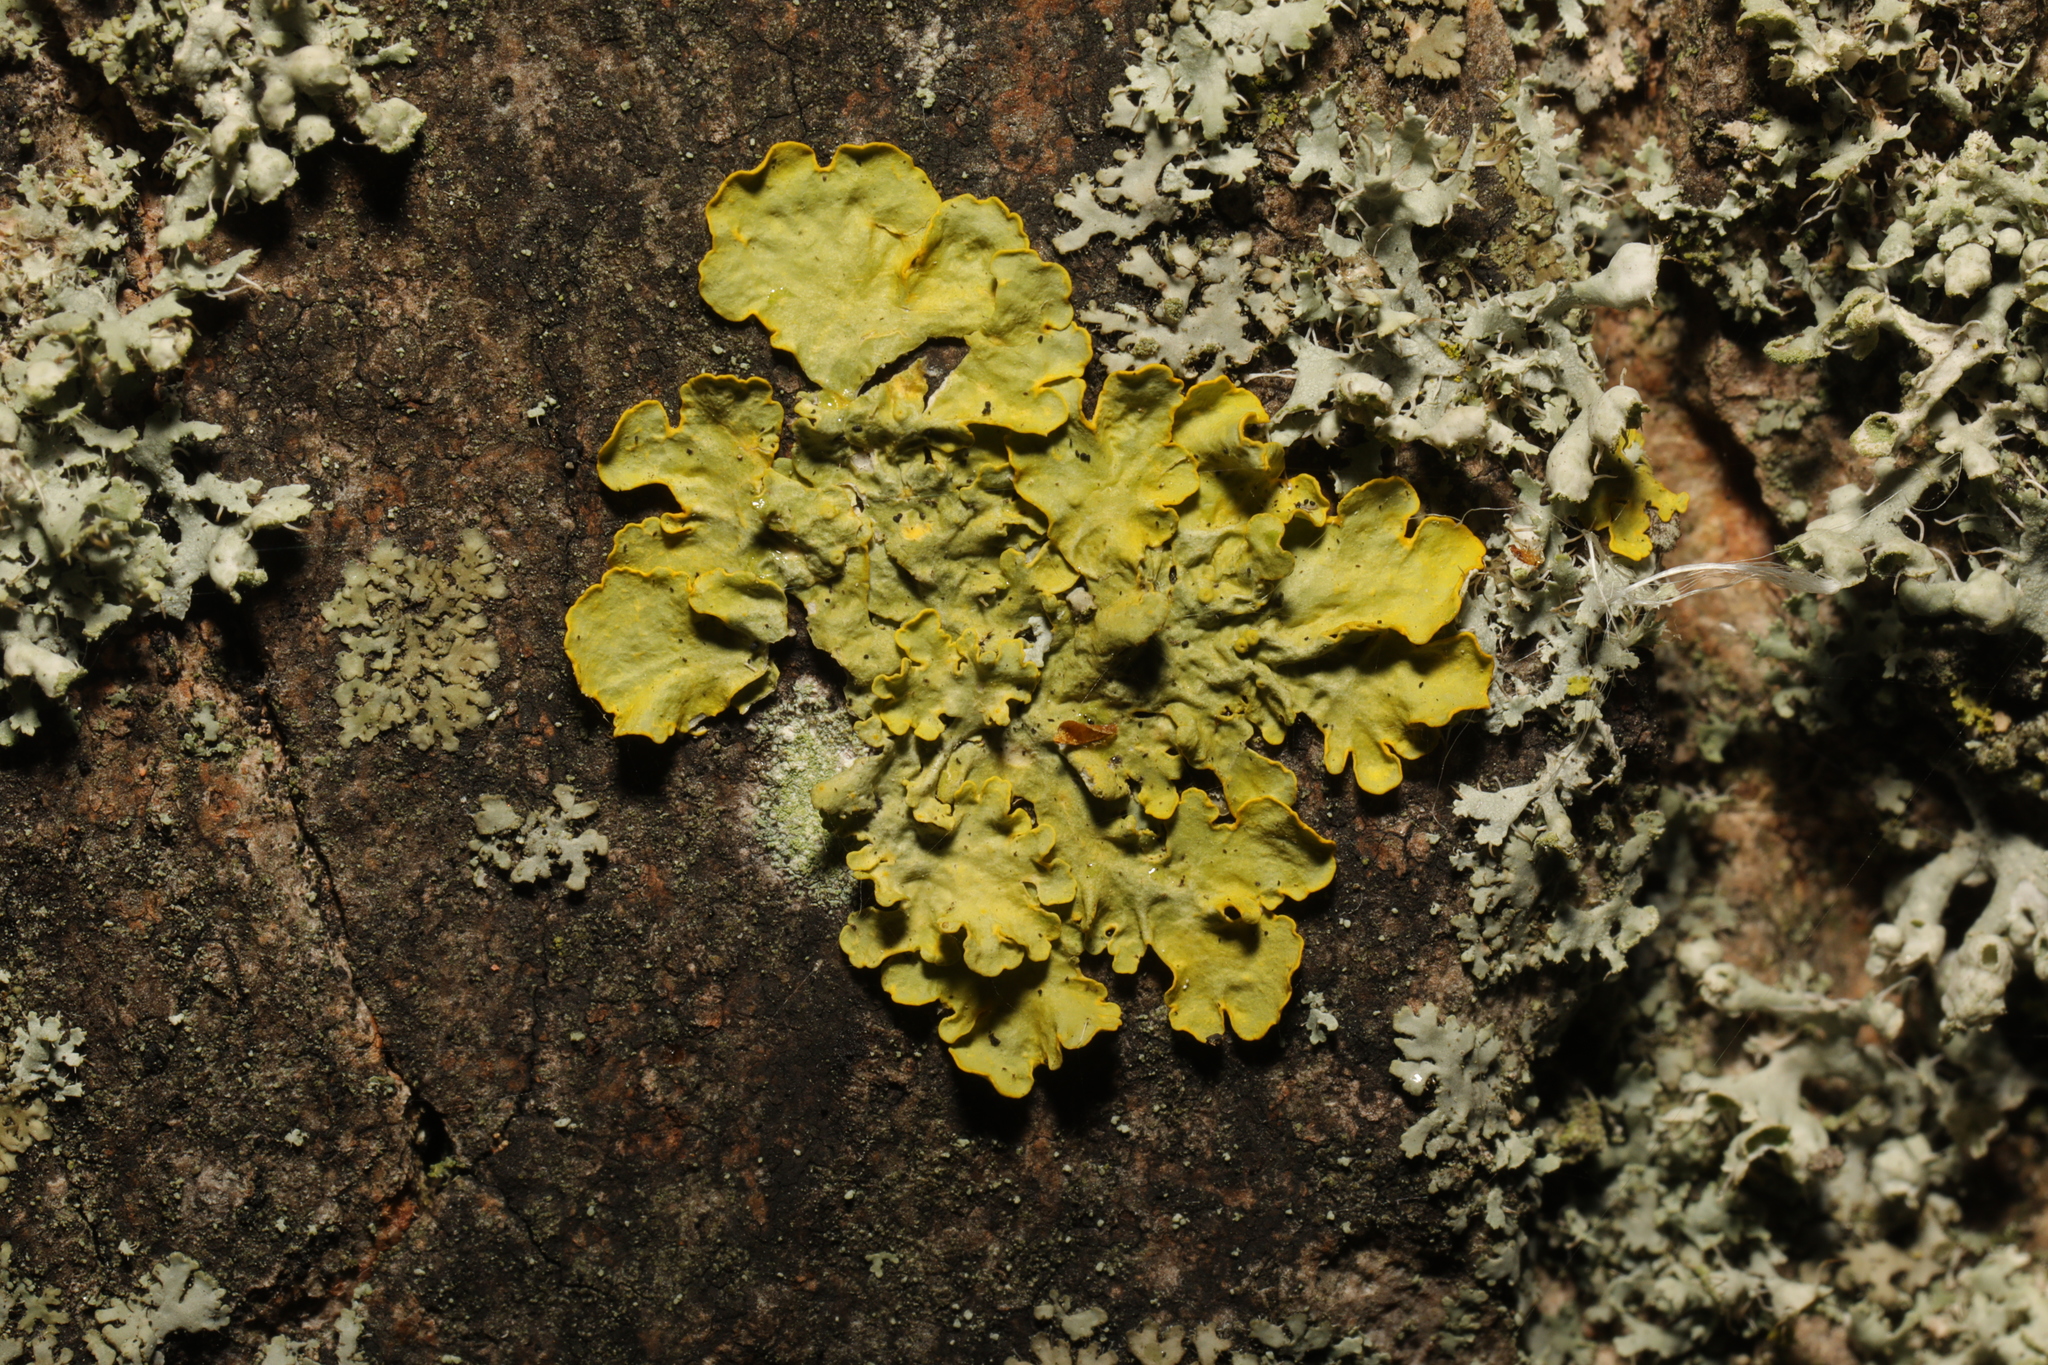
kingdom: Fungi
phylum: Ascomycota
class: Lecanoromycetes
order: Teloschistales
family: Teloschistaceae
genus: Xanthoria
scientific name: Xanthoria parietina
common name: Common orange lichen
